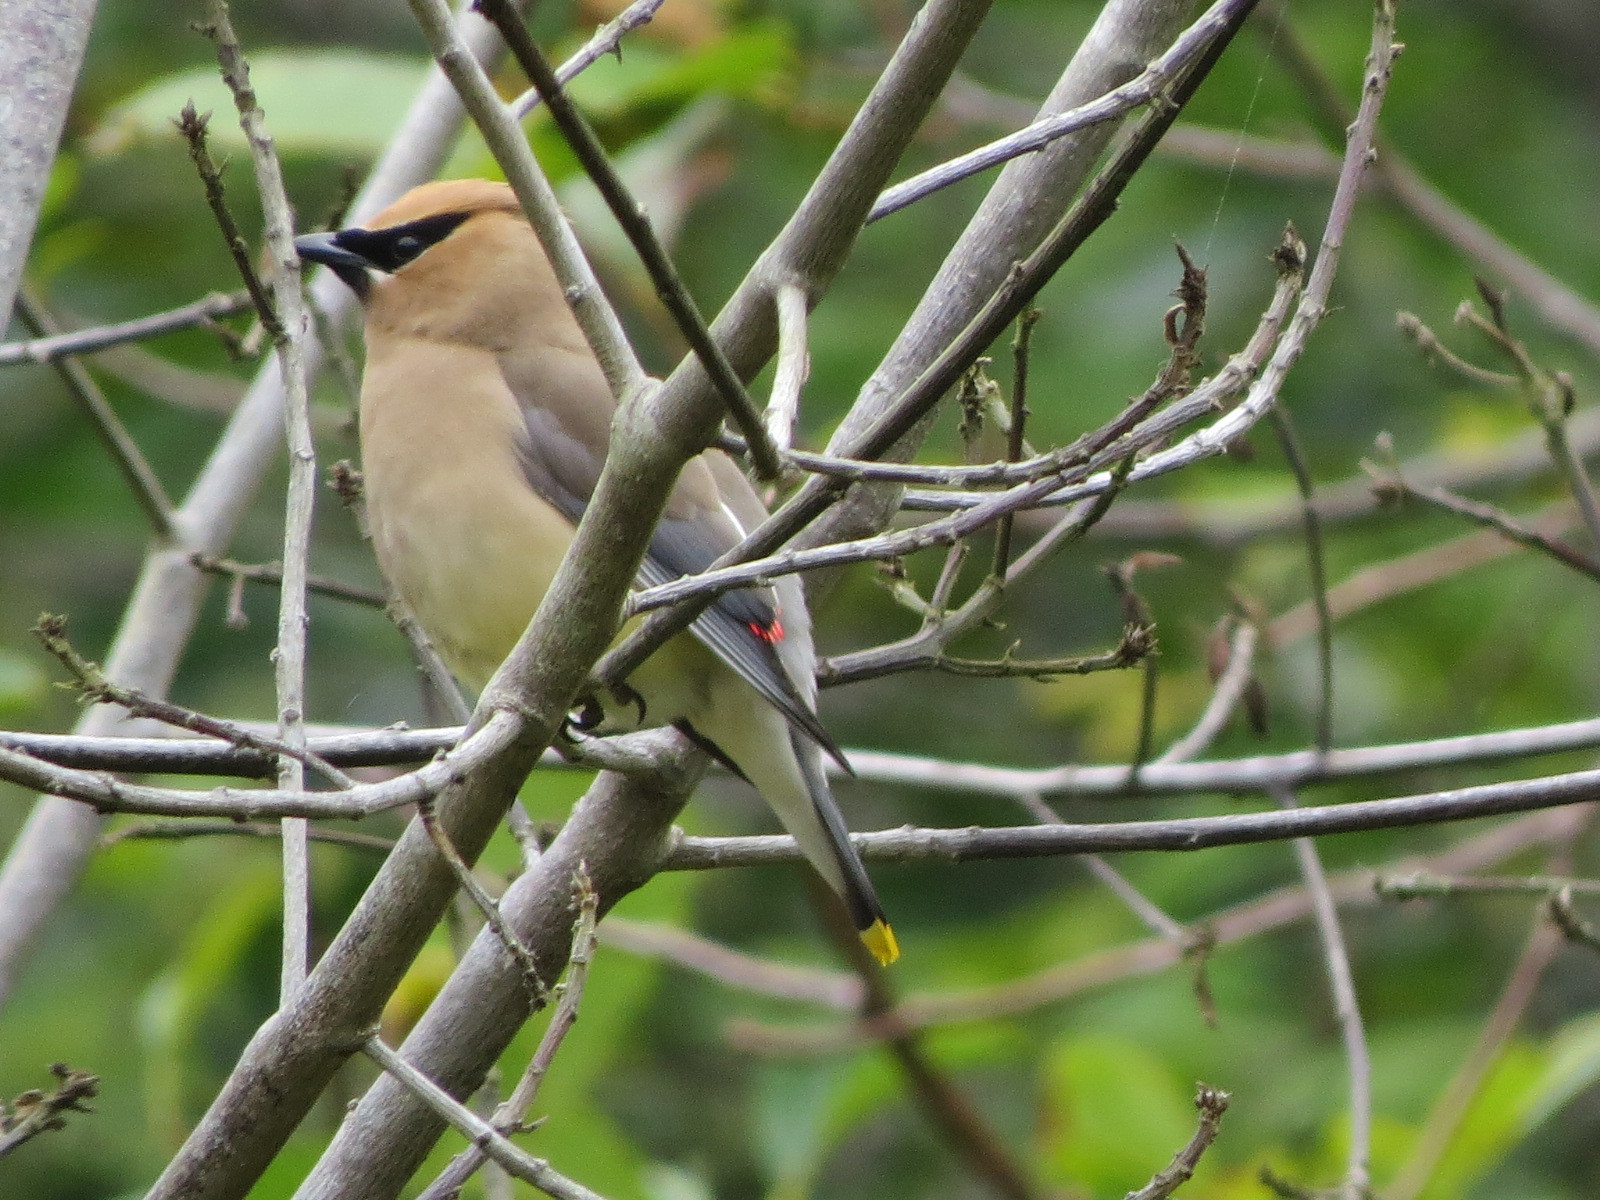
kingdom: Animalia
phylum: Chordata
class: Aves
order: Passeriformes
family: Bombycillidae
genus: Bombycilla
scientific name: Bombycilla cedrorum
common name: Cedar waxwing
